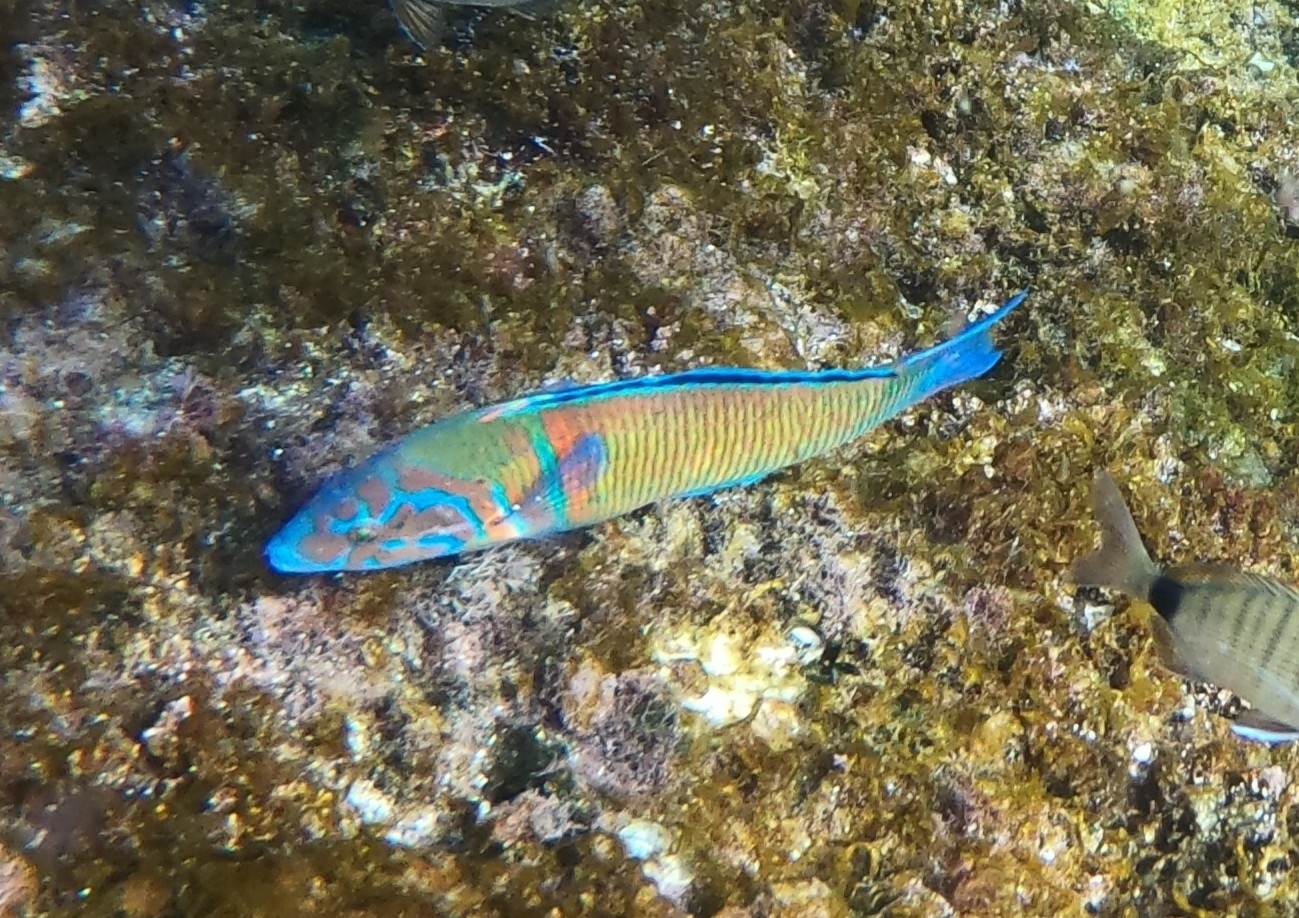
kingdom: Animalia
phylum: Chordata
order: Perciformes
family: Labridae
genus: Thalassoma
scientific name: Thalassoma pavo
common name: Ornate wrasse
